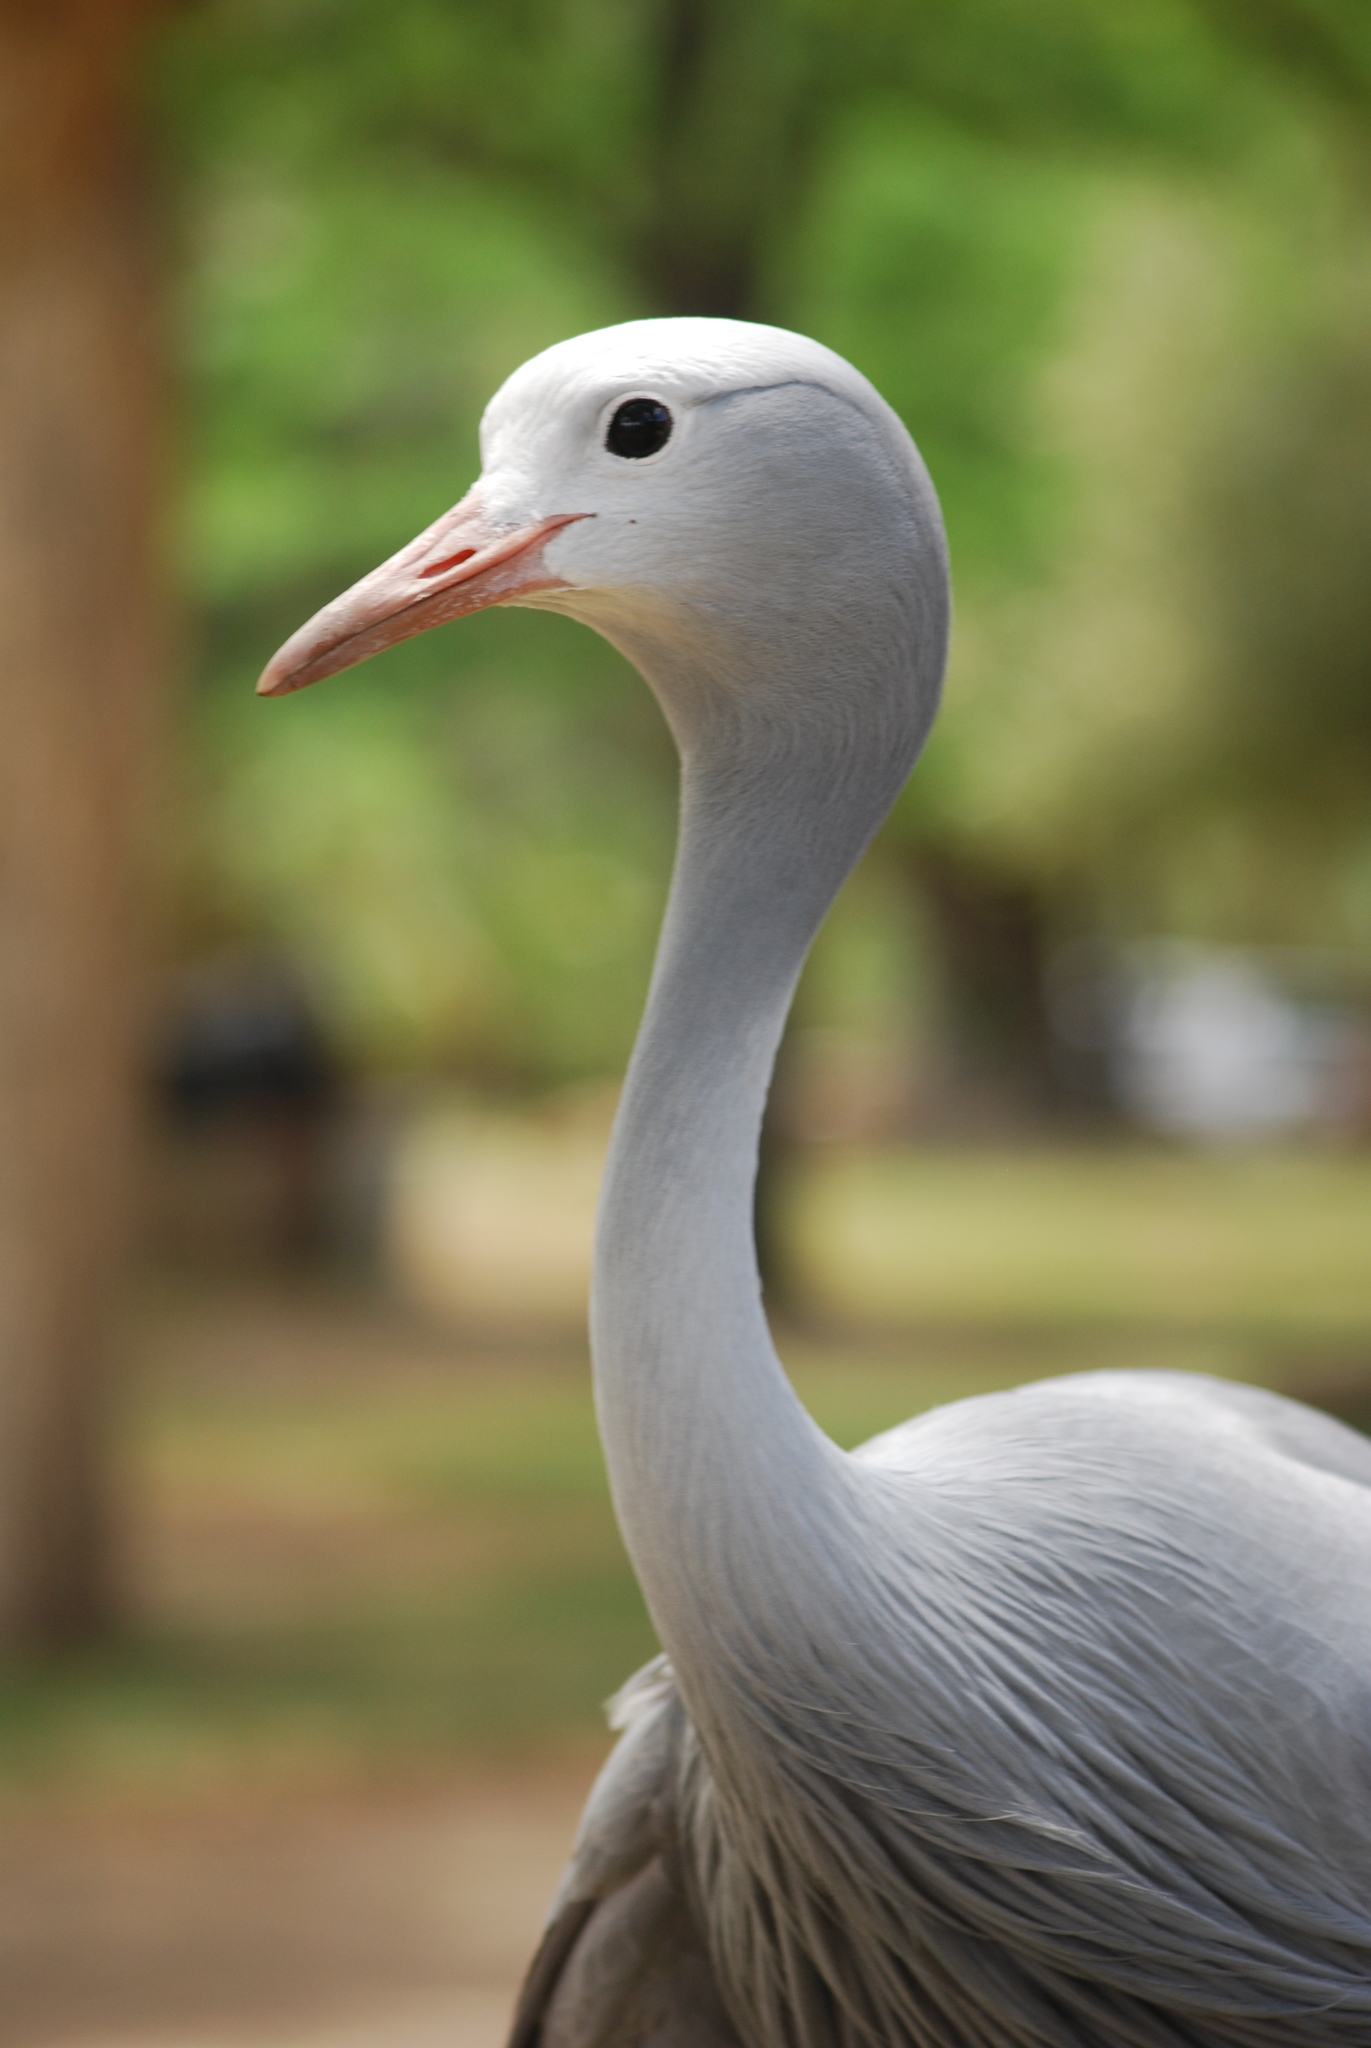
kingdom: Animalia
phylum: Chordata
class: Aves
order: Gruiformes
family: Gruidae
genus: Anthropoides
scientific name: Anthropoides paradiseus
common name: Blue crane
